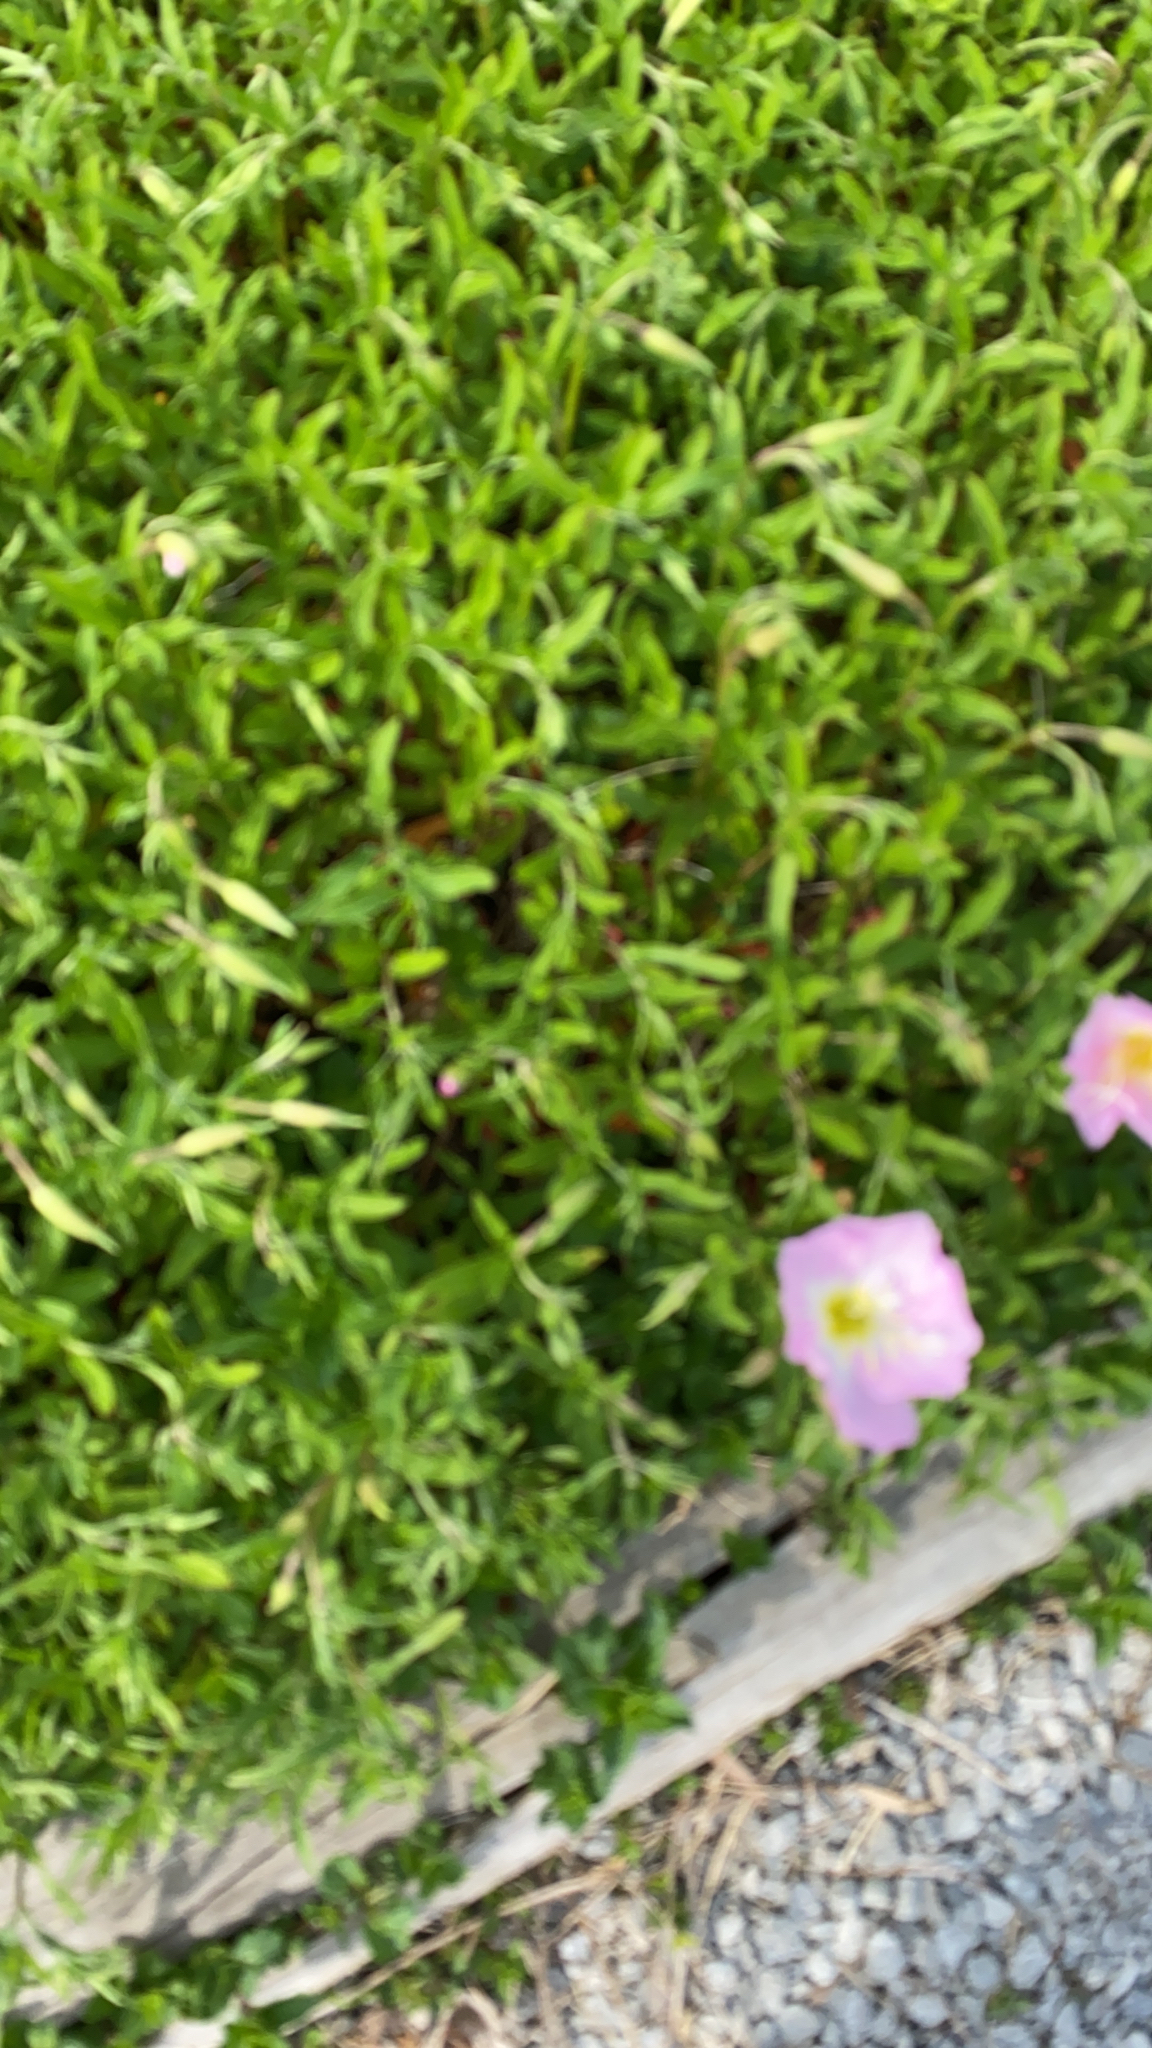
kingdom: Plantae
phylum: Tracheophyta
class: Magnoliopsida
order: Myrtales
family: Onagraceae
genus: Oenothera
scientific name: Oenothera speciosa
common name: White evening-primrose
